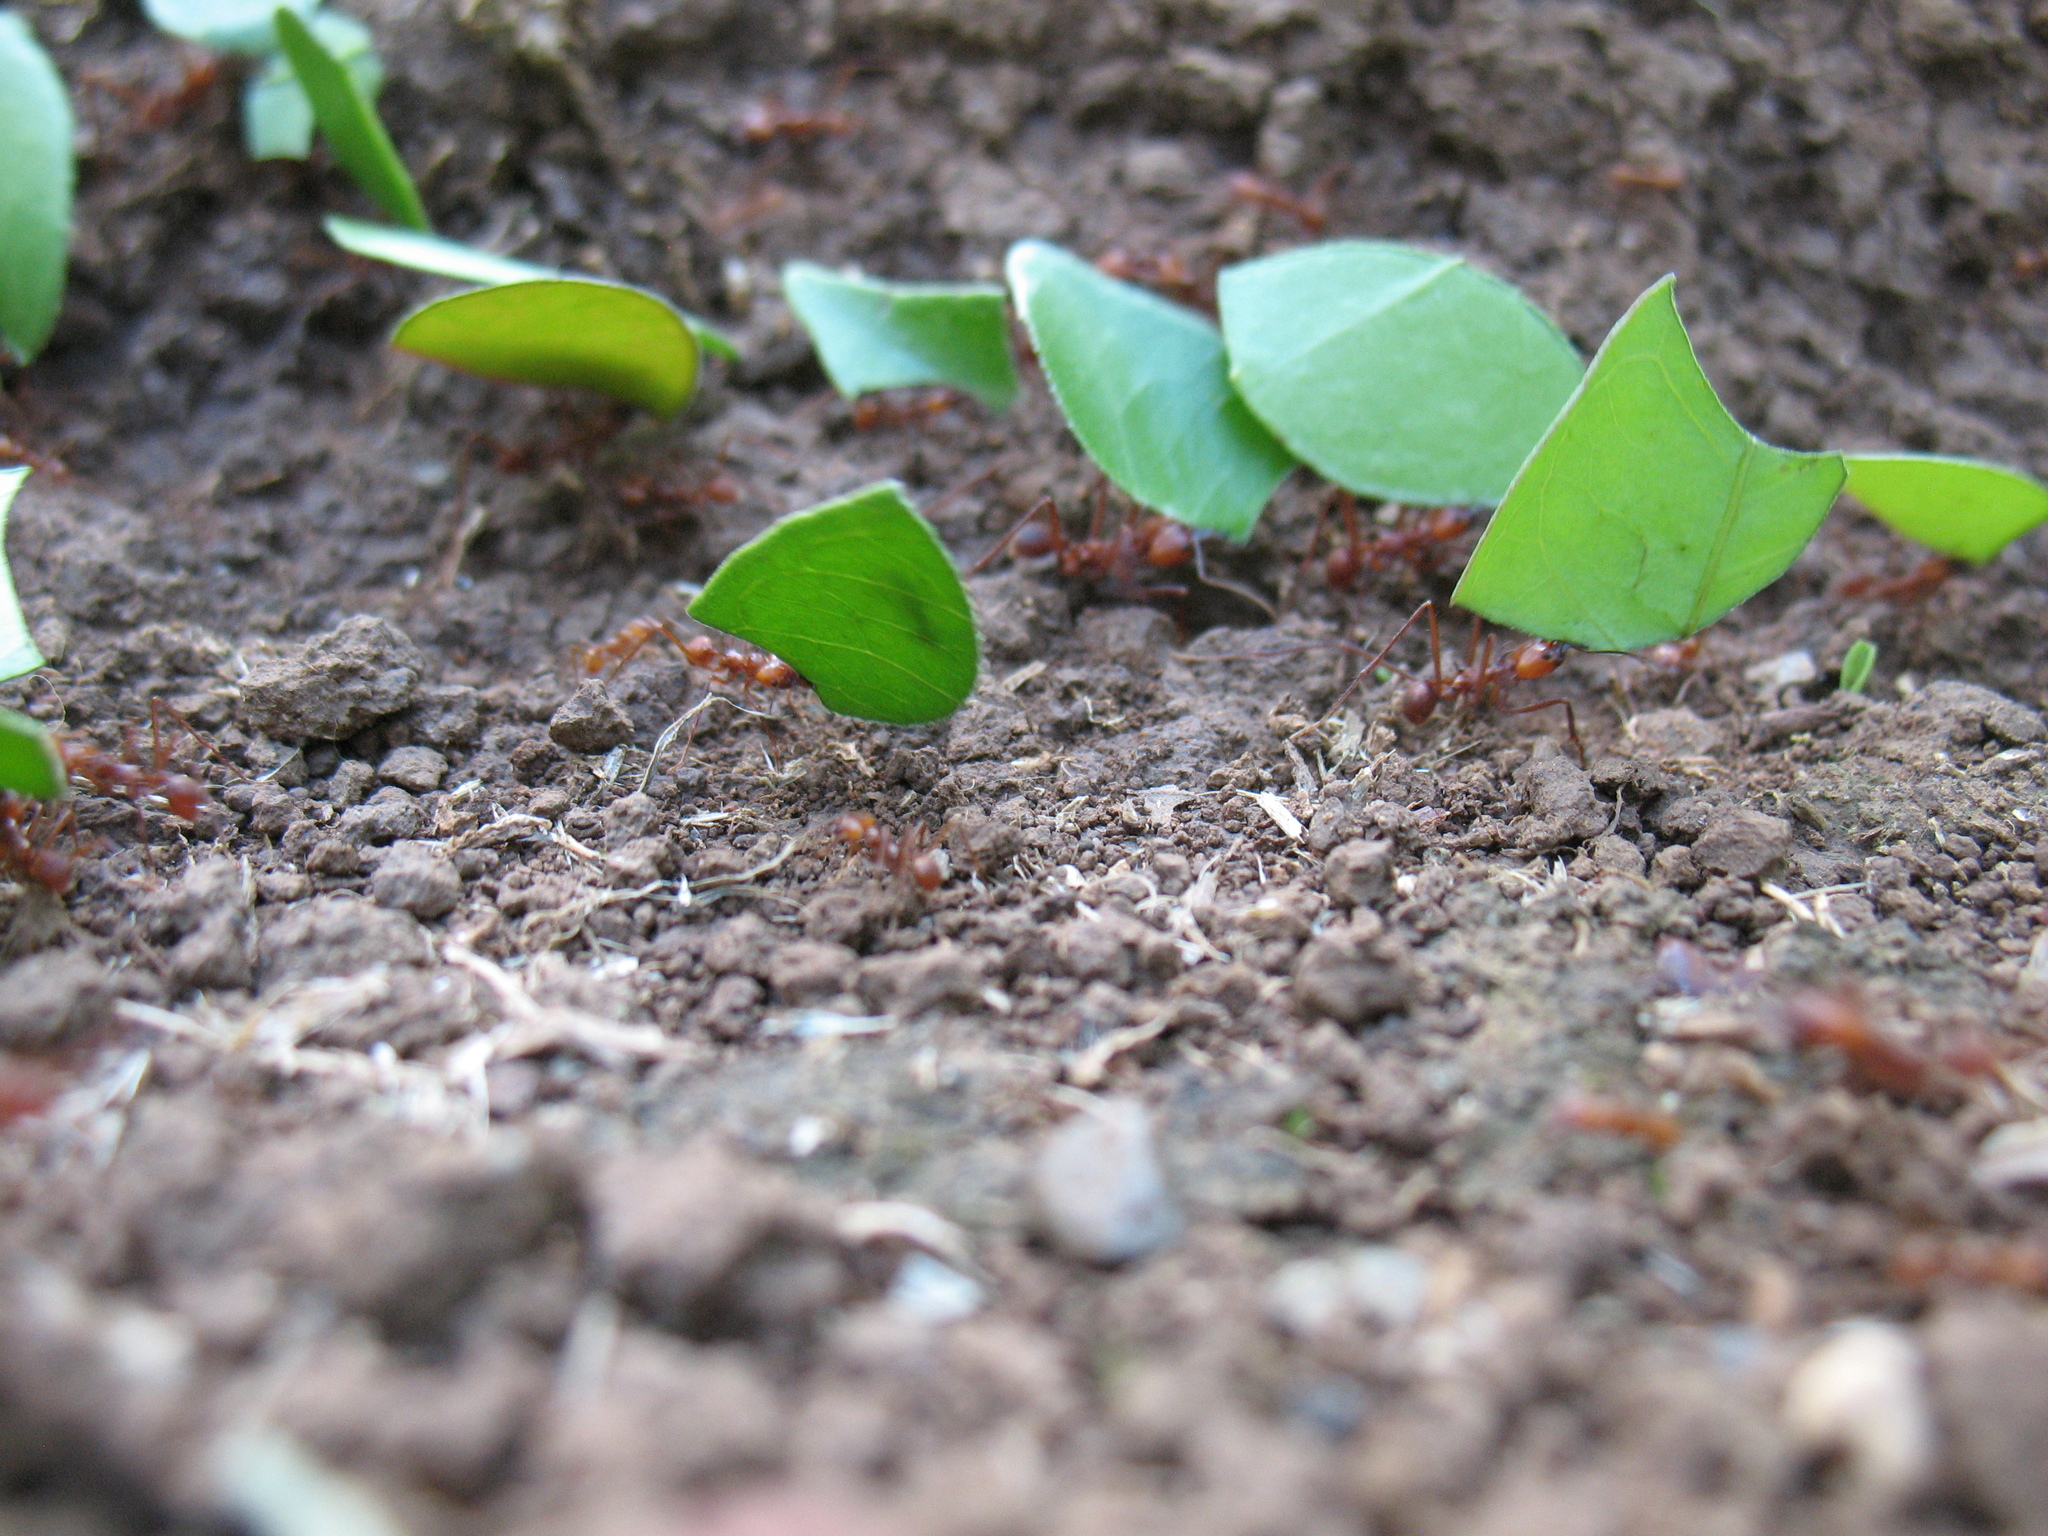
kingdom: Animalia
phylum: Arthropoda
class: Insecta
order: Hymenoptera
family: Formicidae
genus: Atta
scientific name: Atta cephalotes
